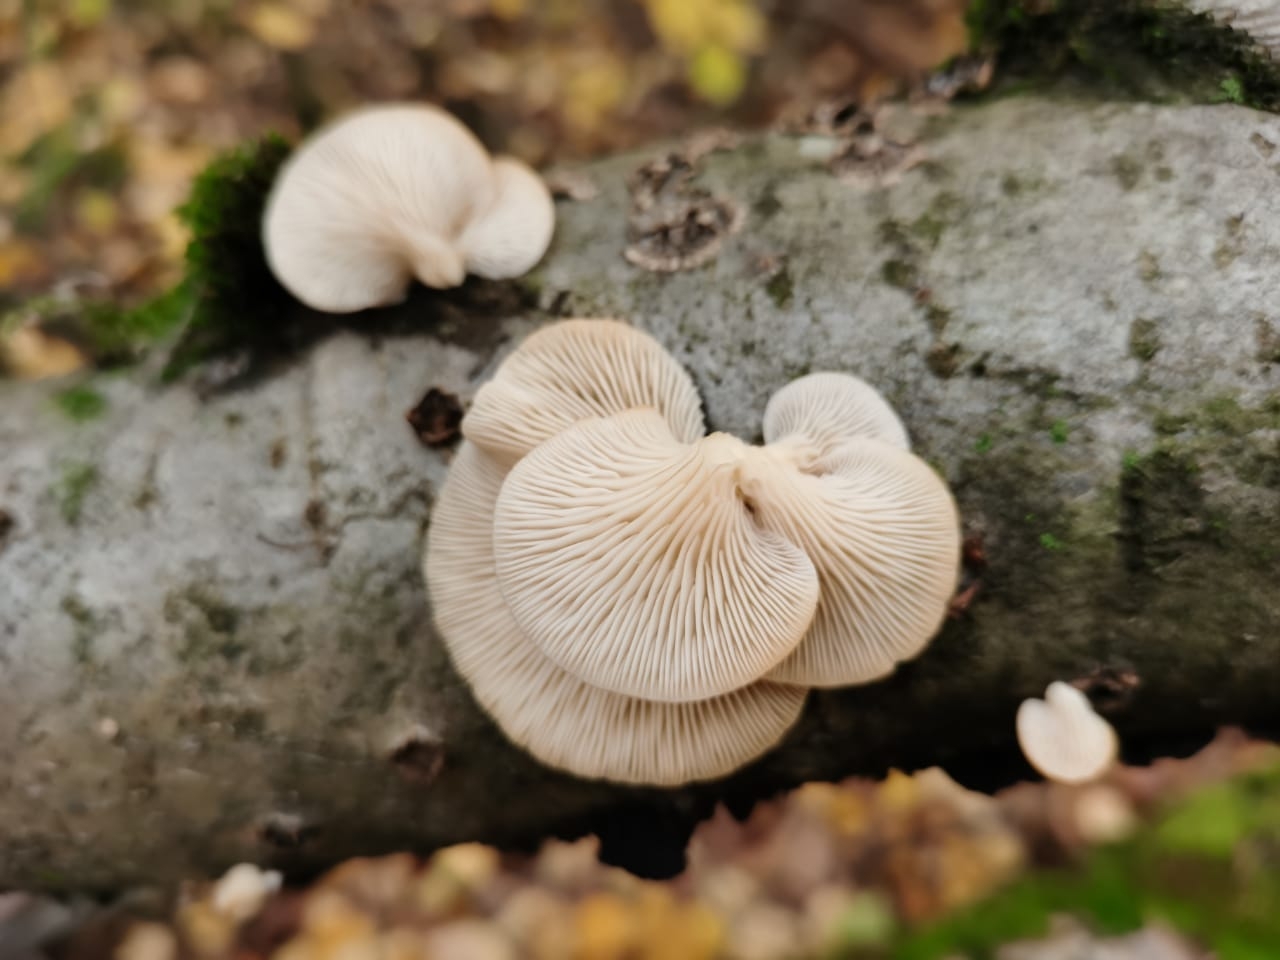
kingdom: Fungi
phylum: Basidiomycota
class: Agaricomycetes
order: Agaricales
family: Pleurotaceae
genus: Pleurotus
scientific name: Pleurotus ostreatus
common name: Oyster mushroom
